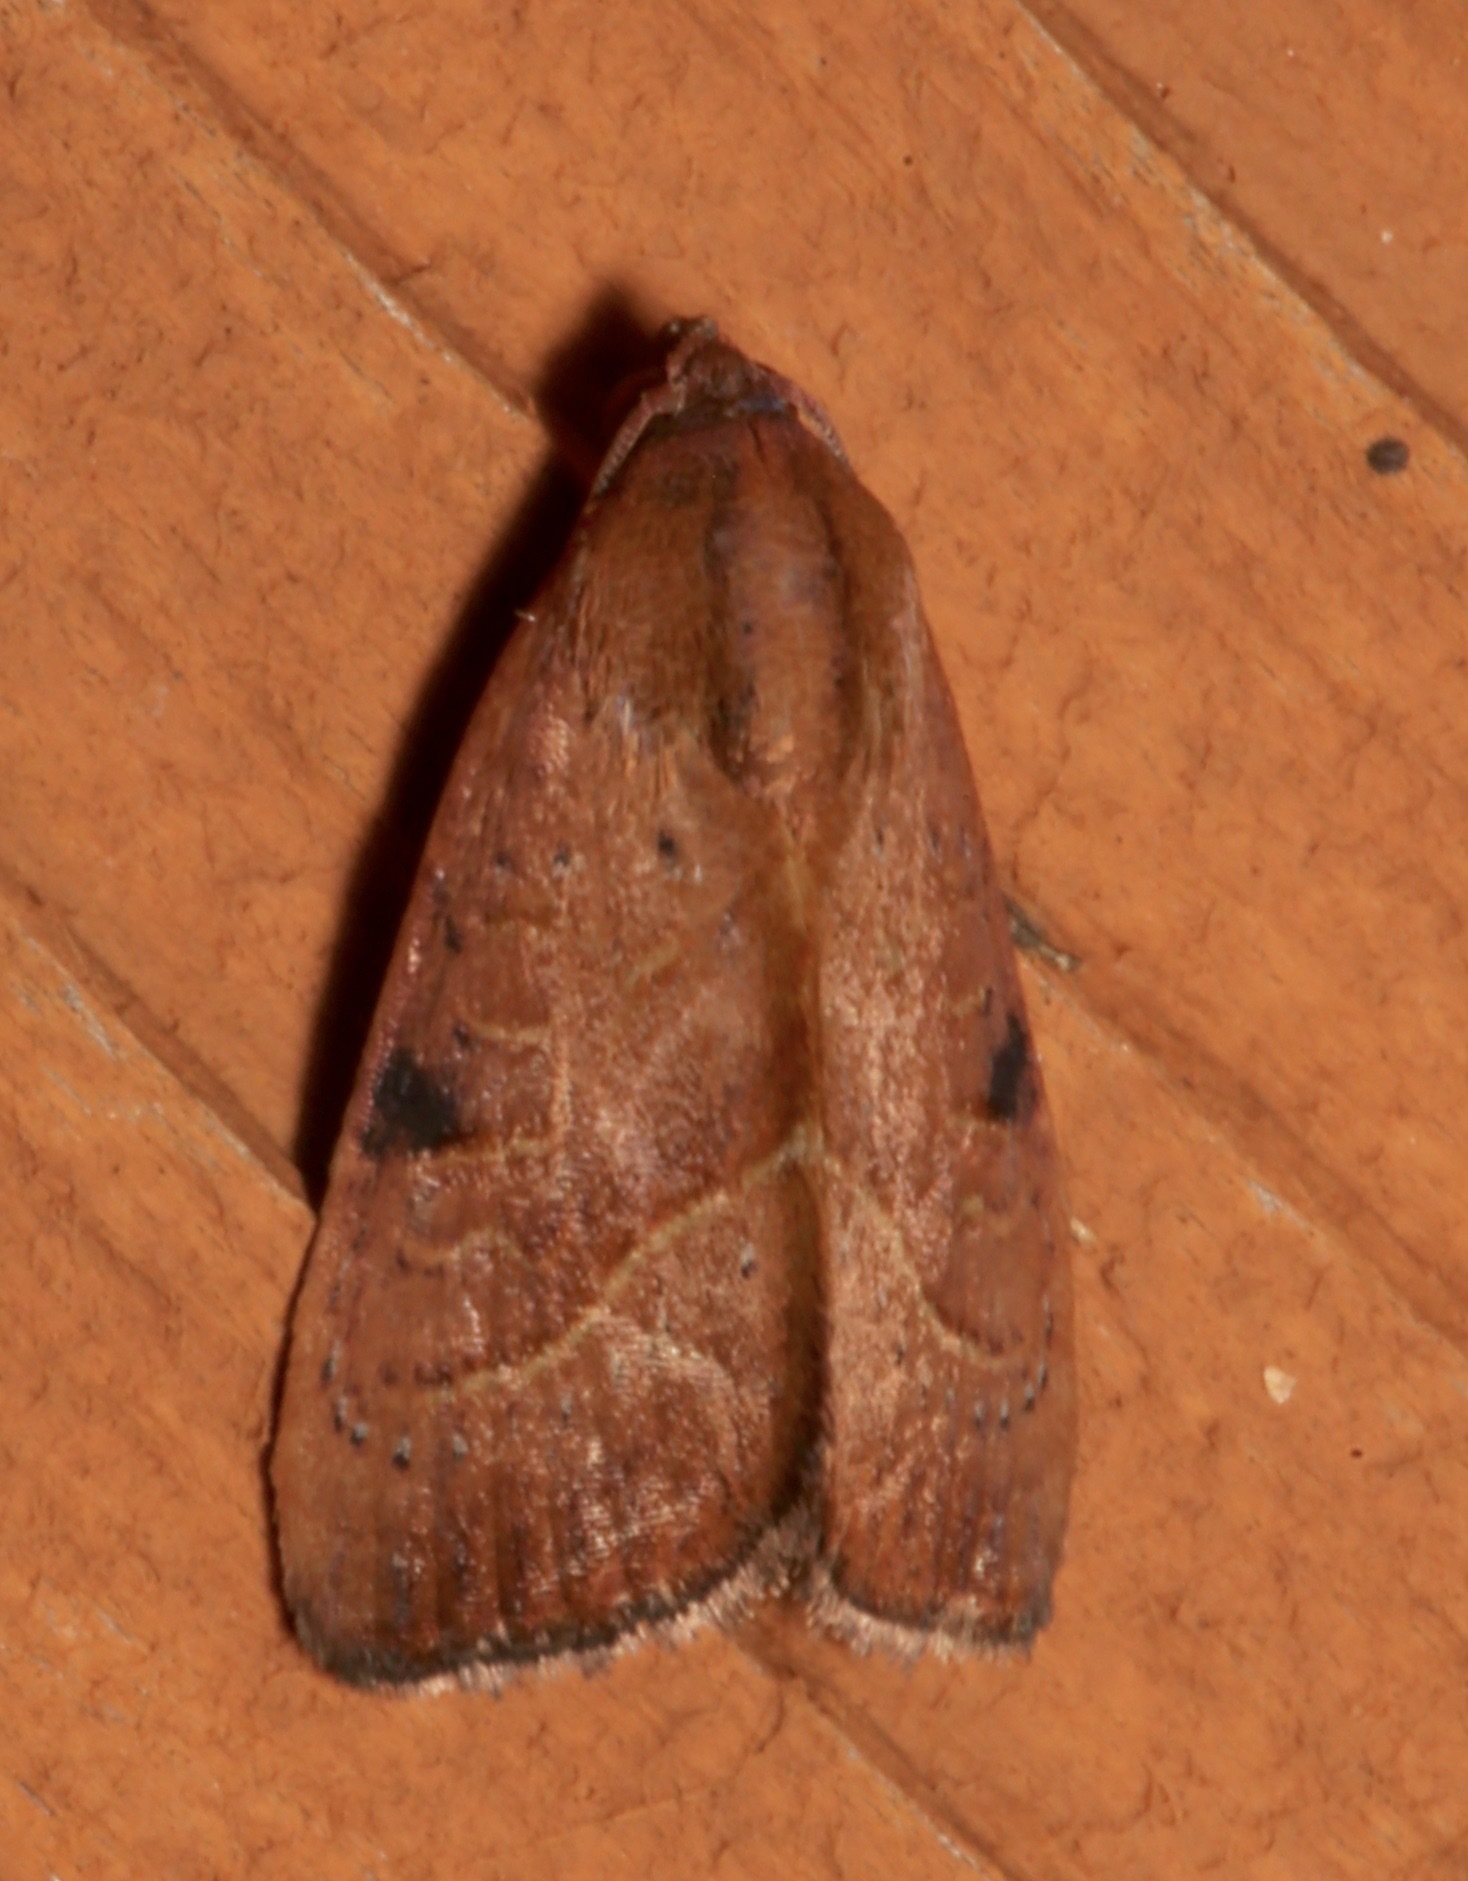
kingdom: Animalia
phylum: Arthropoda
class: Insecta
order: Lepidoptera
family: Noctuidae
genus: Galgula
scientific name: Galgula partita
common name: Wedgeling
